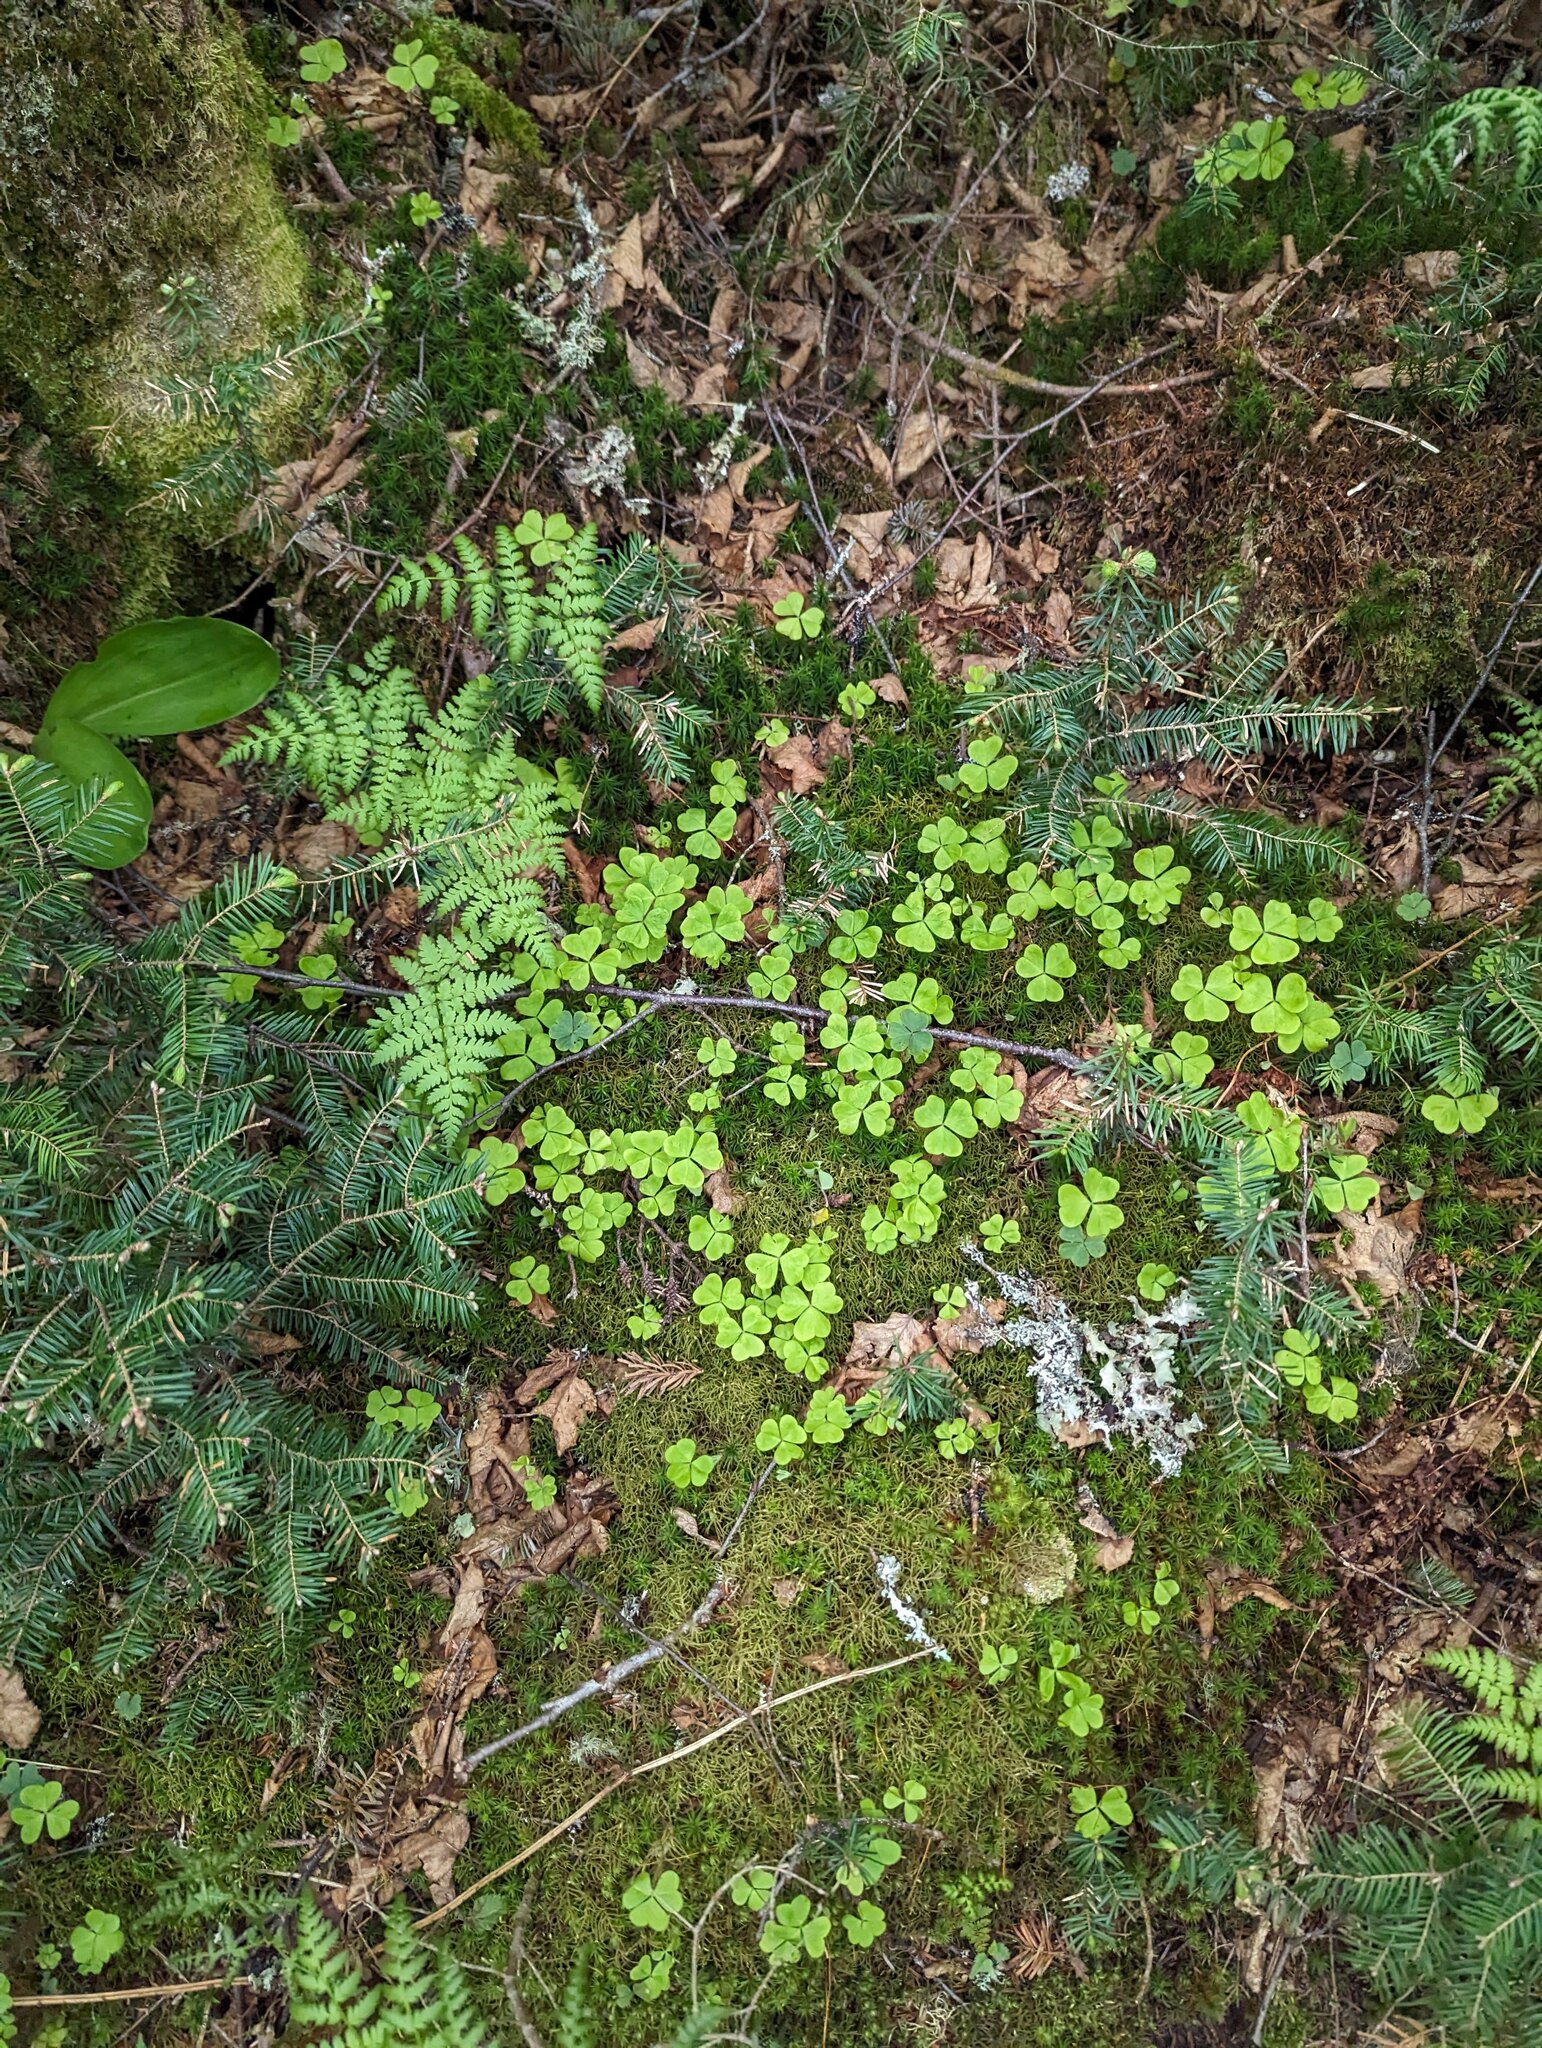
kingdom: Plantae
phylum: Tracheophyta
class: Magnoliopsida
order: Oxalidales
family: Oxalidaceae
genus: Oxalis
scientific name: Oxalis montana
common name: American wood-sorrel
